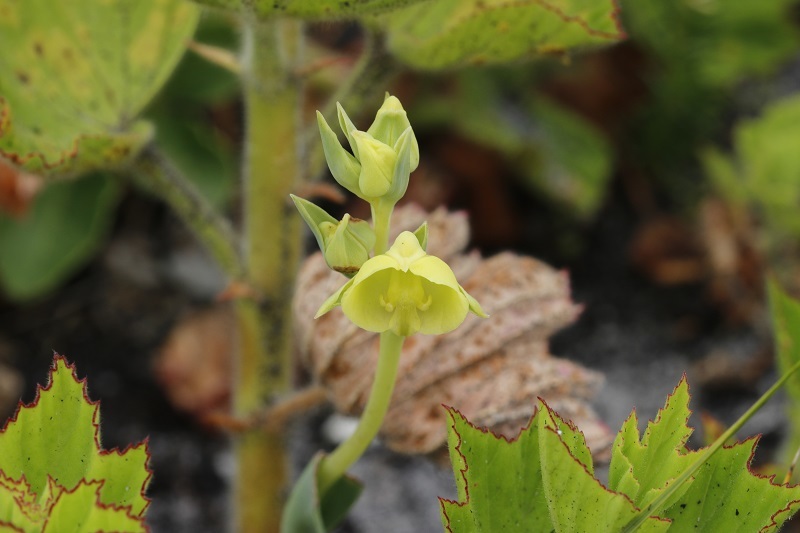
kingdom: Plantae
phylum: Tracheophyta
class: Liliopsida
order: Asparagales
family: Orchidaceae
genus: Pterygodium
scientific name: Pterygodium catholicum
